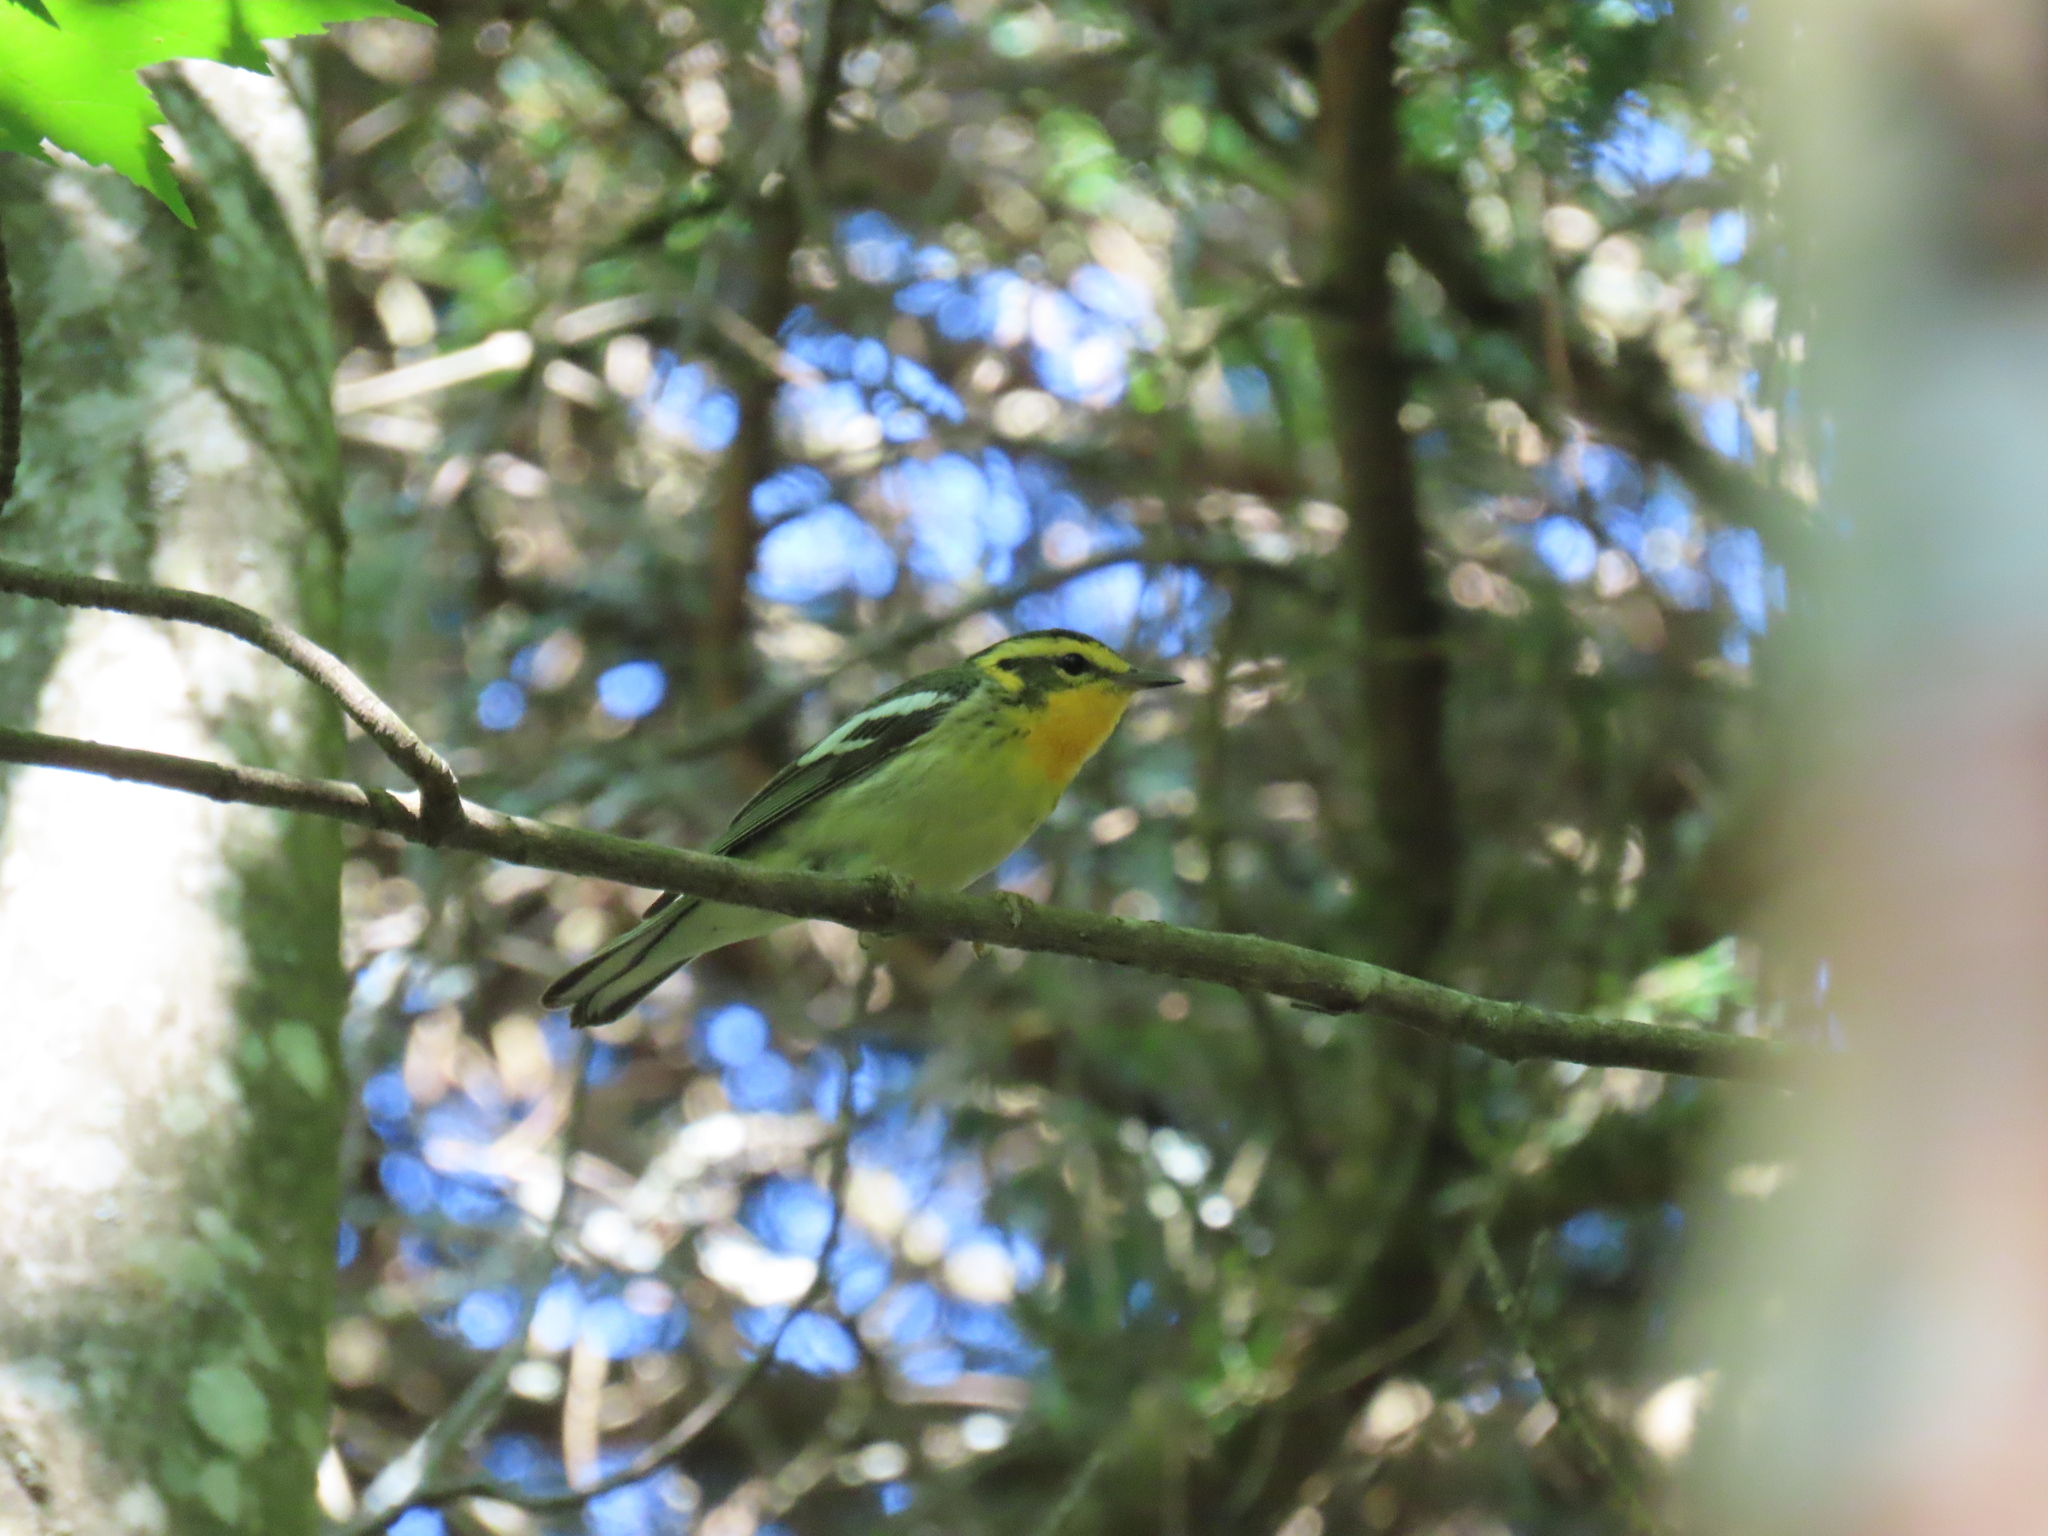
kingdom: Animalia
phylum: Chordata
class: Aves
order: Passeriformes
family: Parulidae
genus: Setophaga
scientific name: Setophaga fusca
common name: Blackburnian warbler
